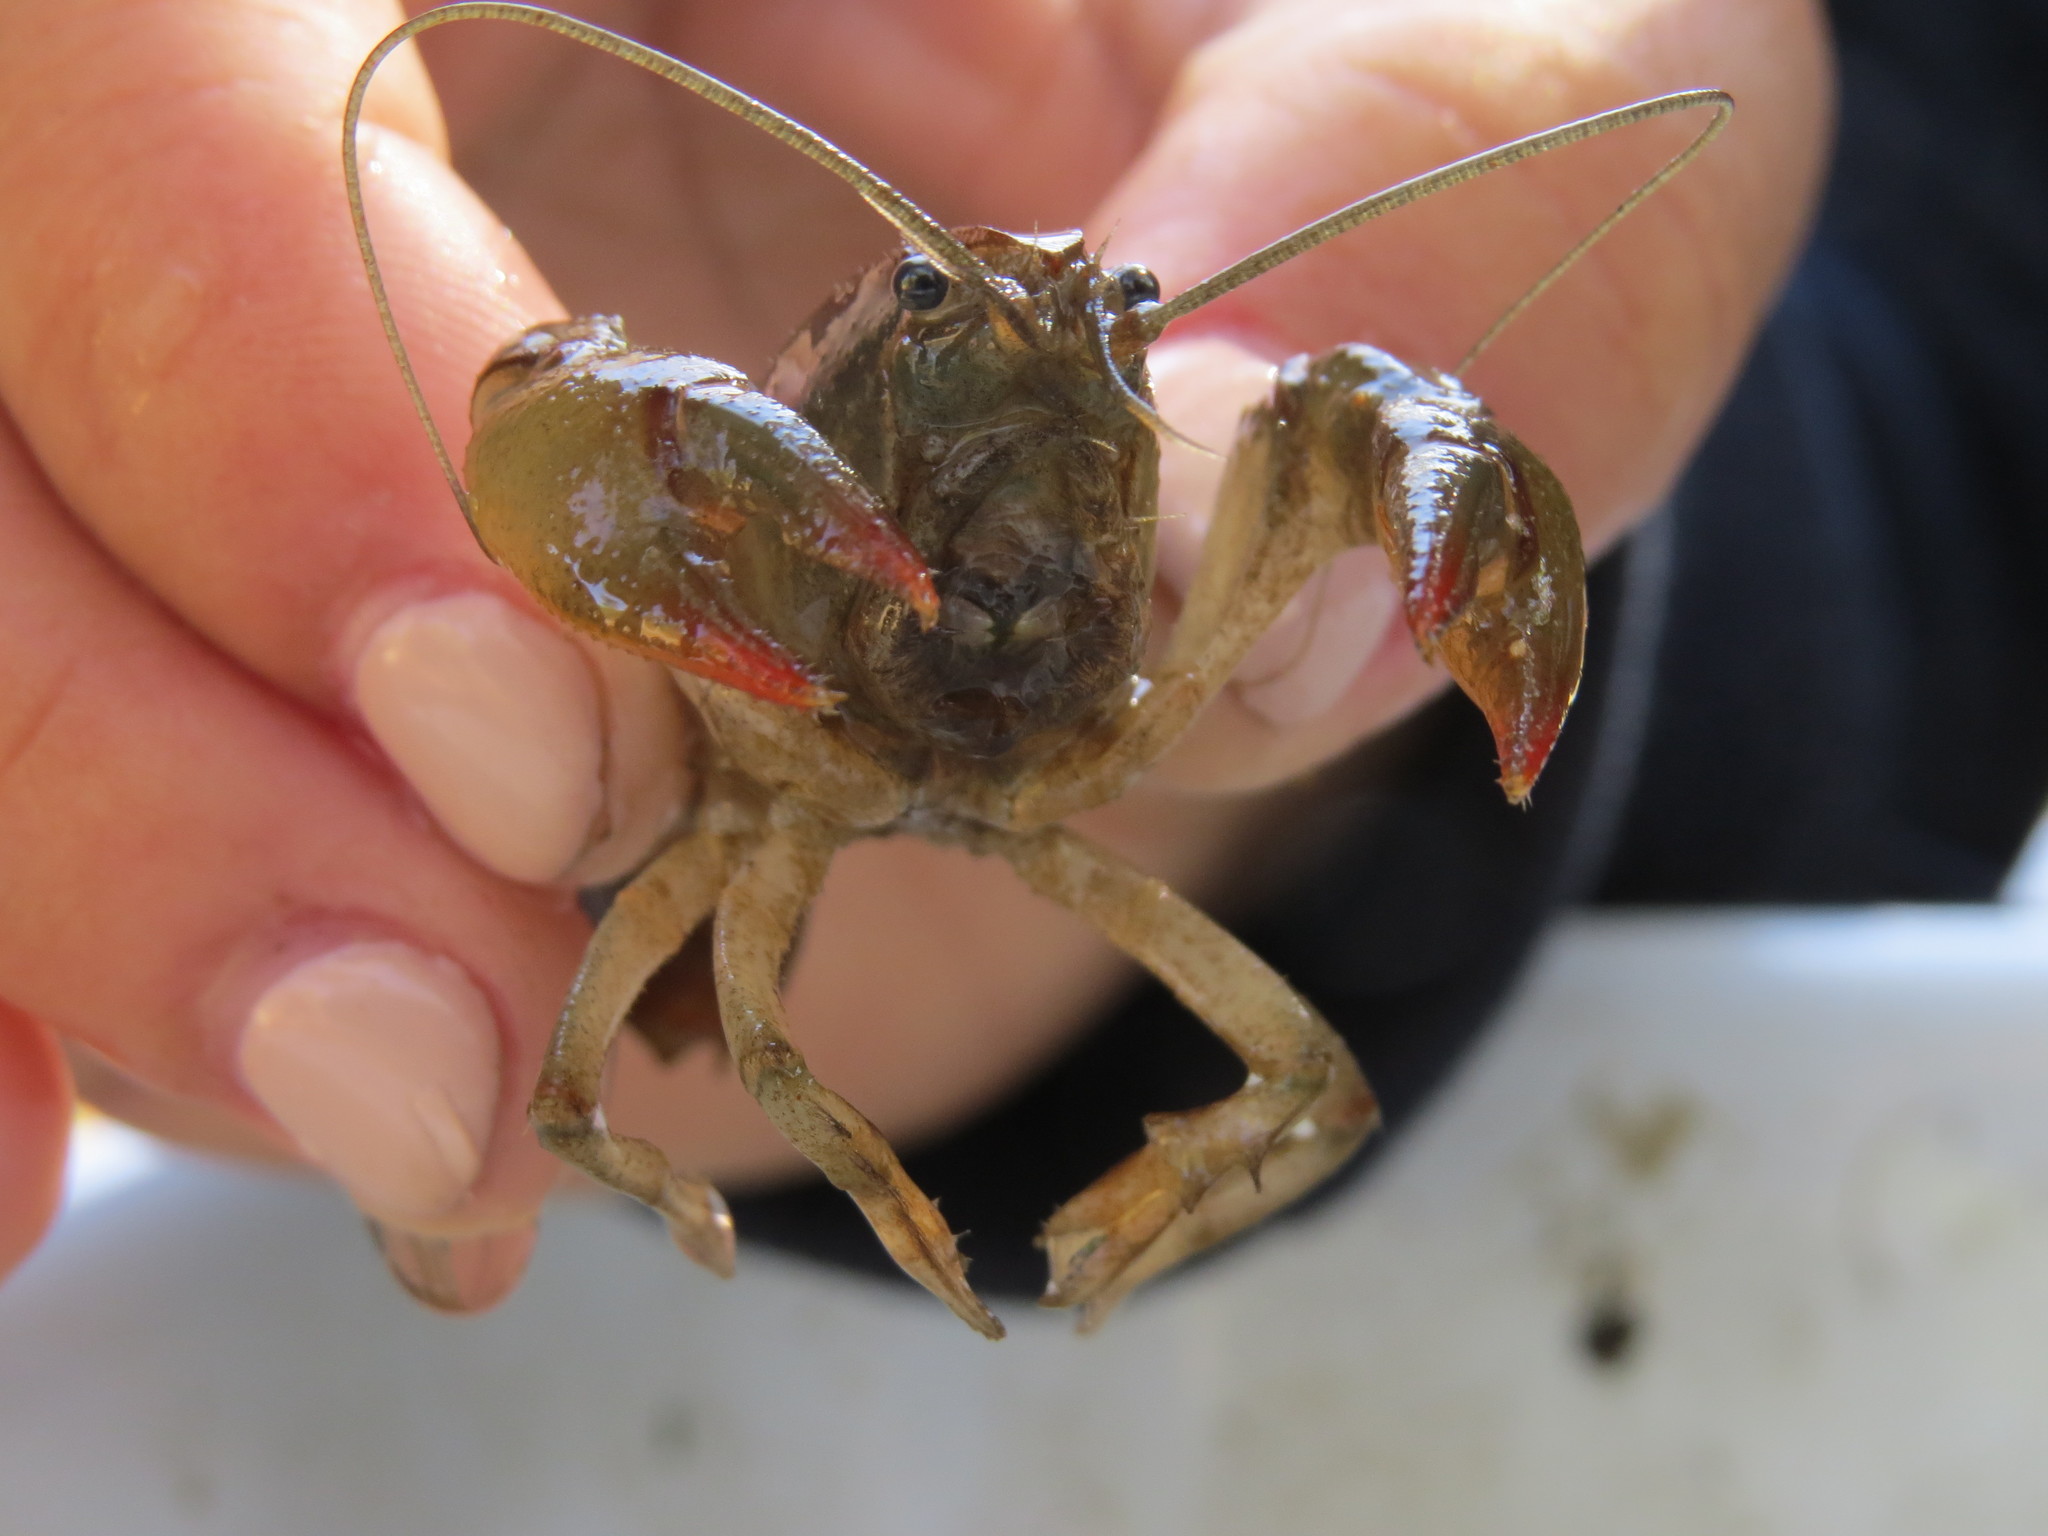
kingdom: Animalia
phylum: Arthropoda
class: Malacostraca
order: Decapoda
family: Cambaridae
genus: Lacunicambarus
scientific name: Lacunicambarus chimera
